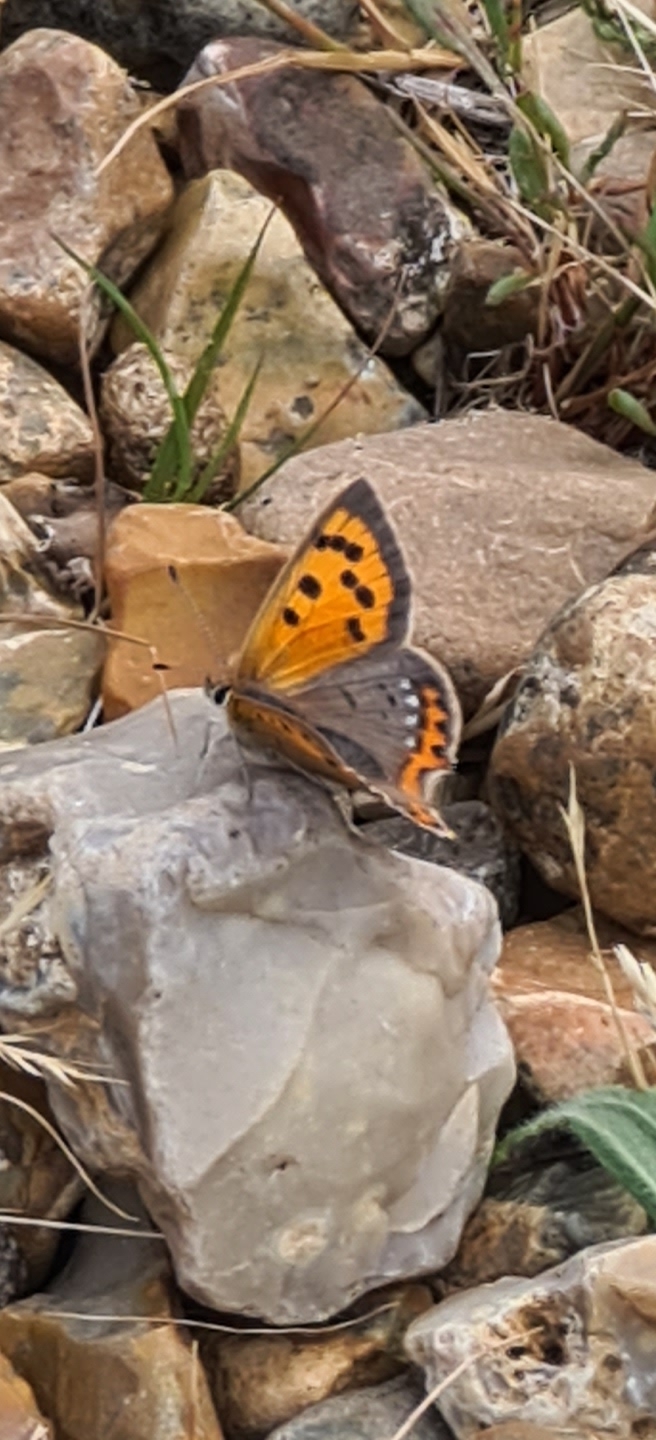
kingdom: Animalia
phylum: Arthropoda
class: Insecta
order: Lepidoptera
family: Lycaenidae
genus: Lycaena
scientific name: Lycaena phlaeas
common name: Small copper
